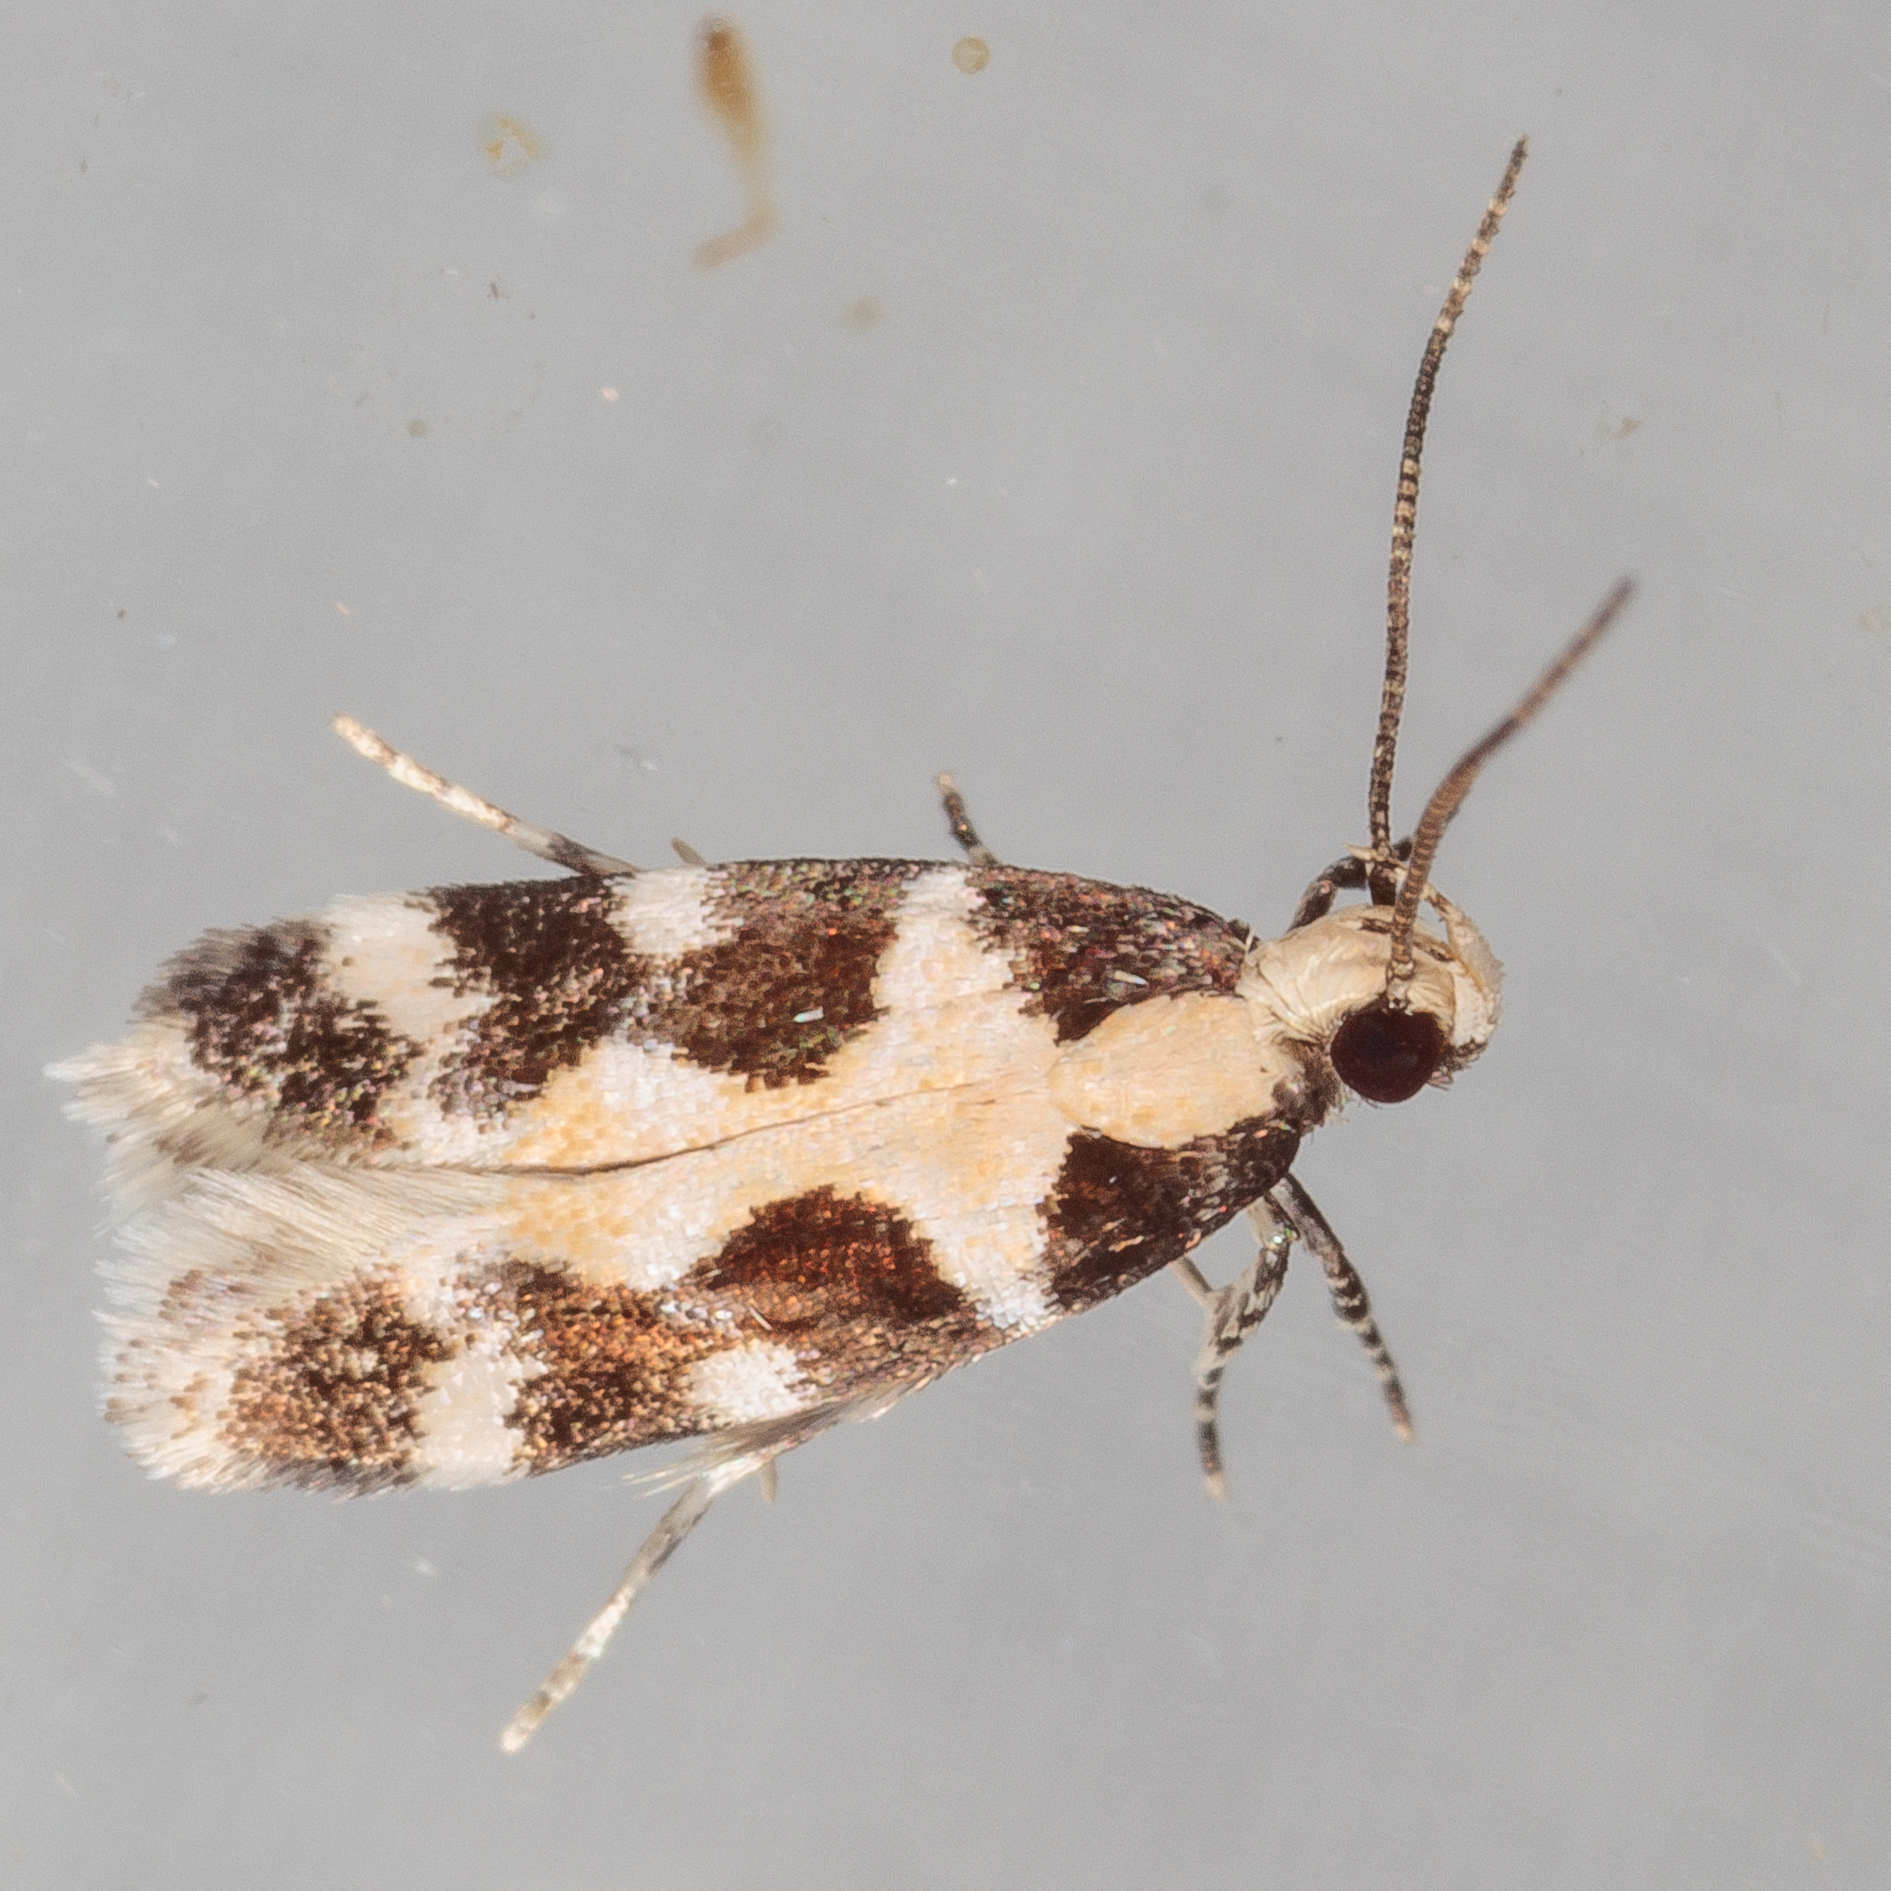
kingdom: Animalia
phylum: Arthropoda
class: Insecta
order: Lepidoptera
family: Gelechiidae
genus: Stegasta
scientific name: Stegasta capitella
